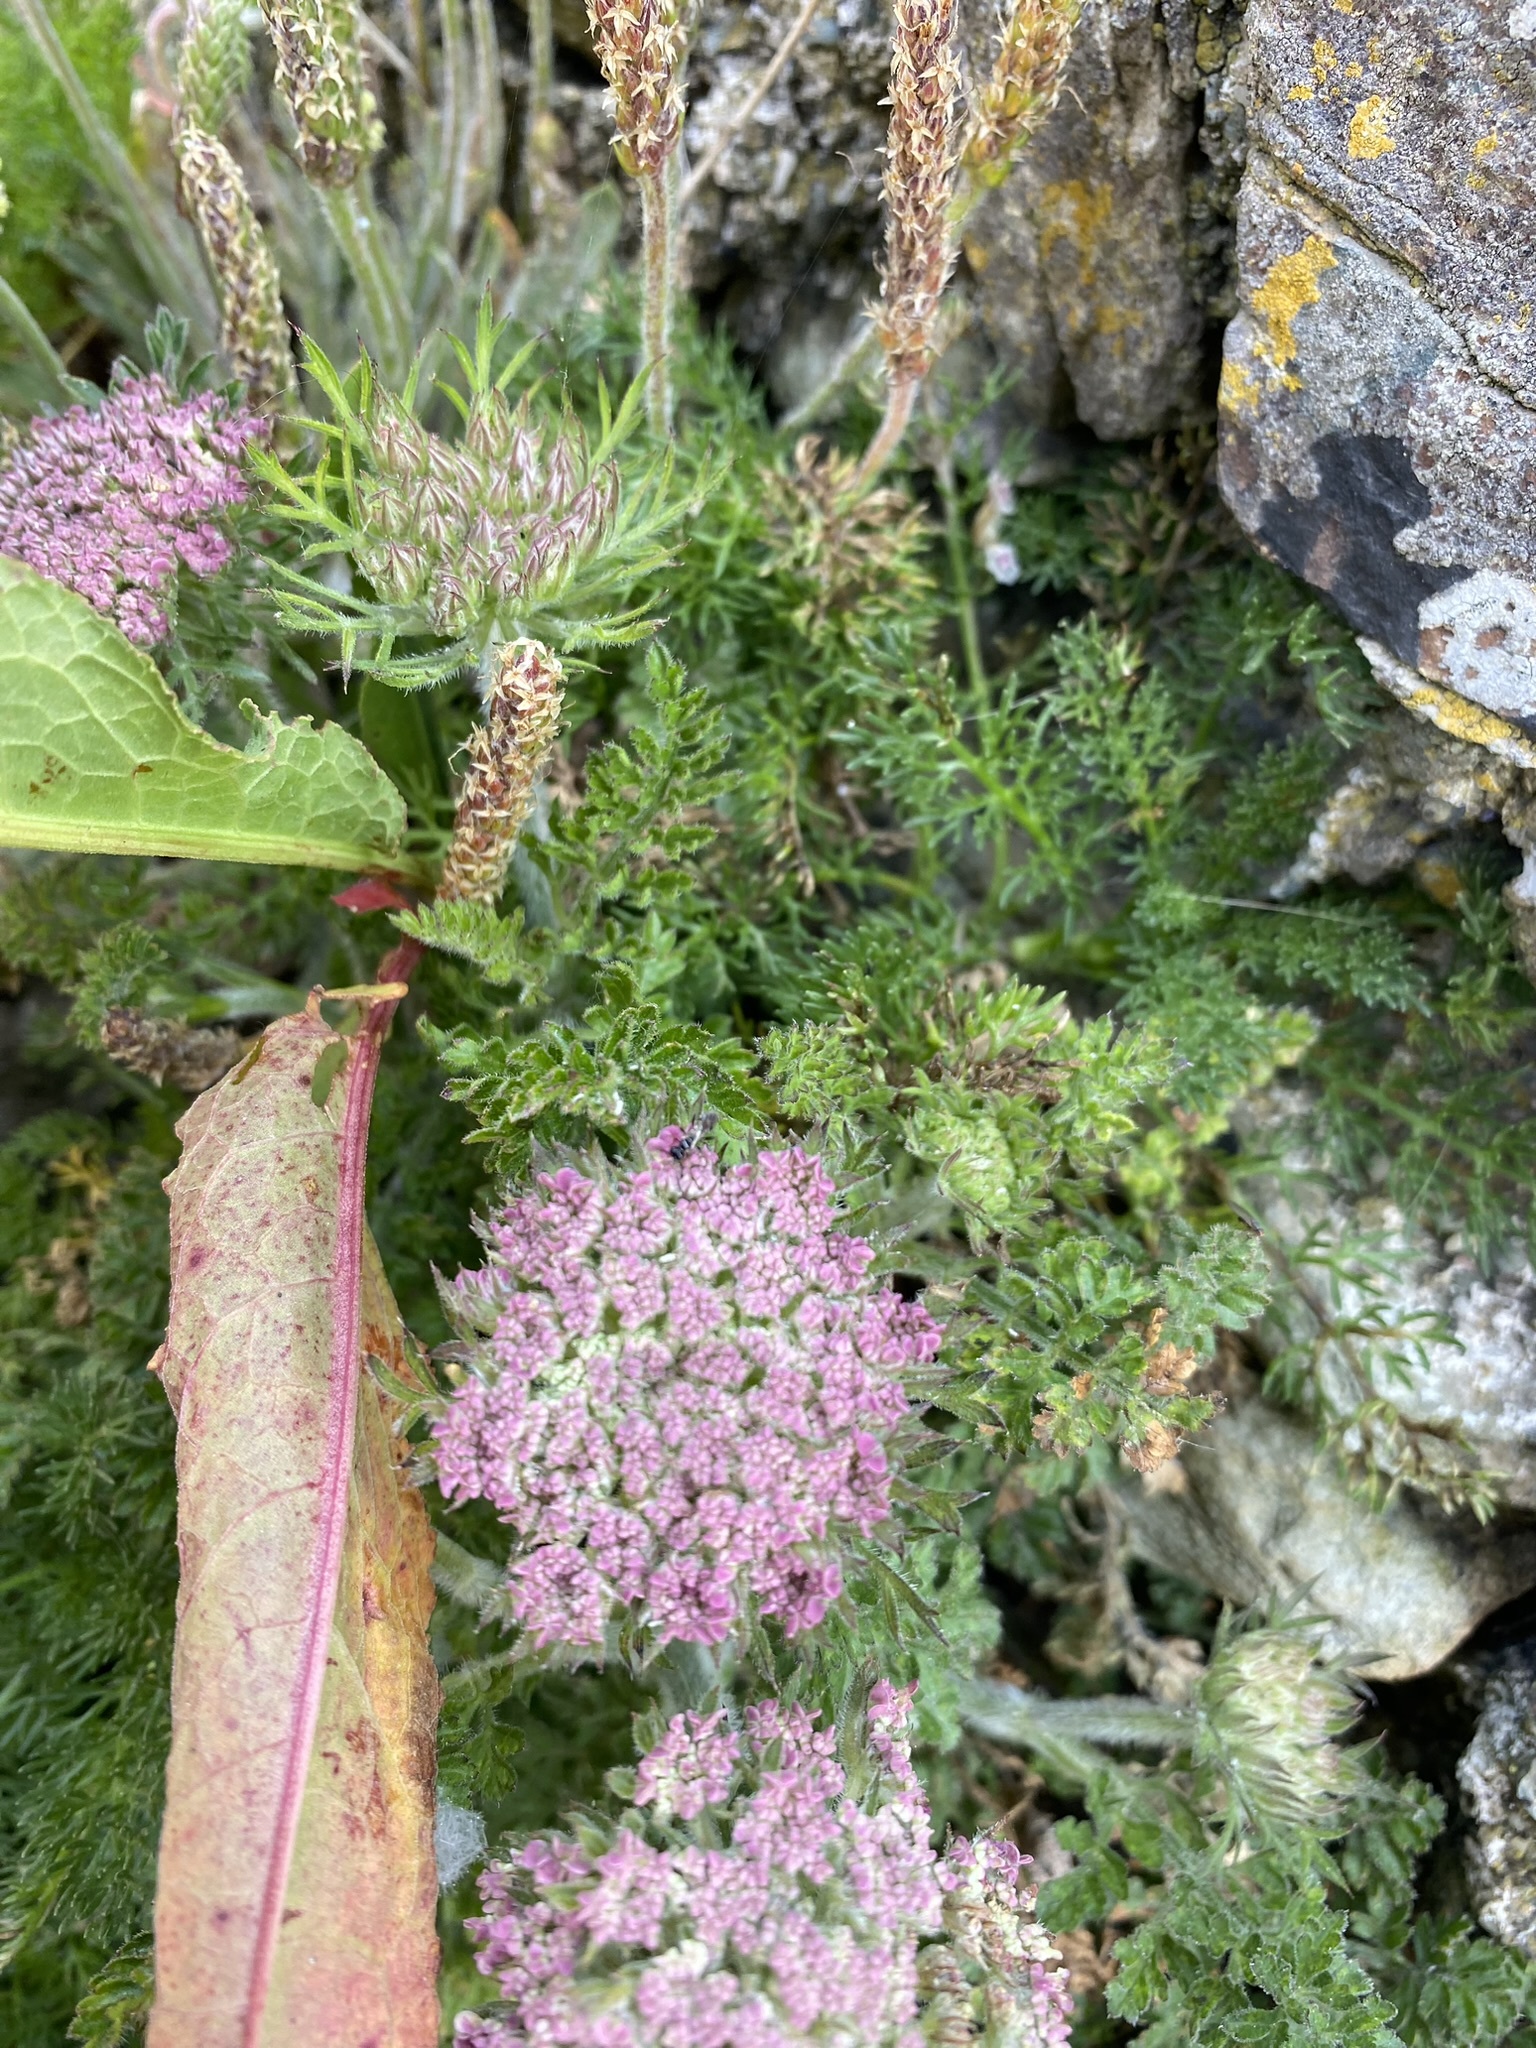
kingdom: Plantae
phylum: Tracheophyta
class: Magnoliopsida
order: Apiales
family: Apiaceae
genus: Daucus
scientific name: Daucus carota
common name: Wild carrot
